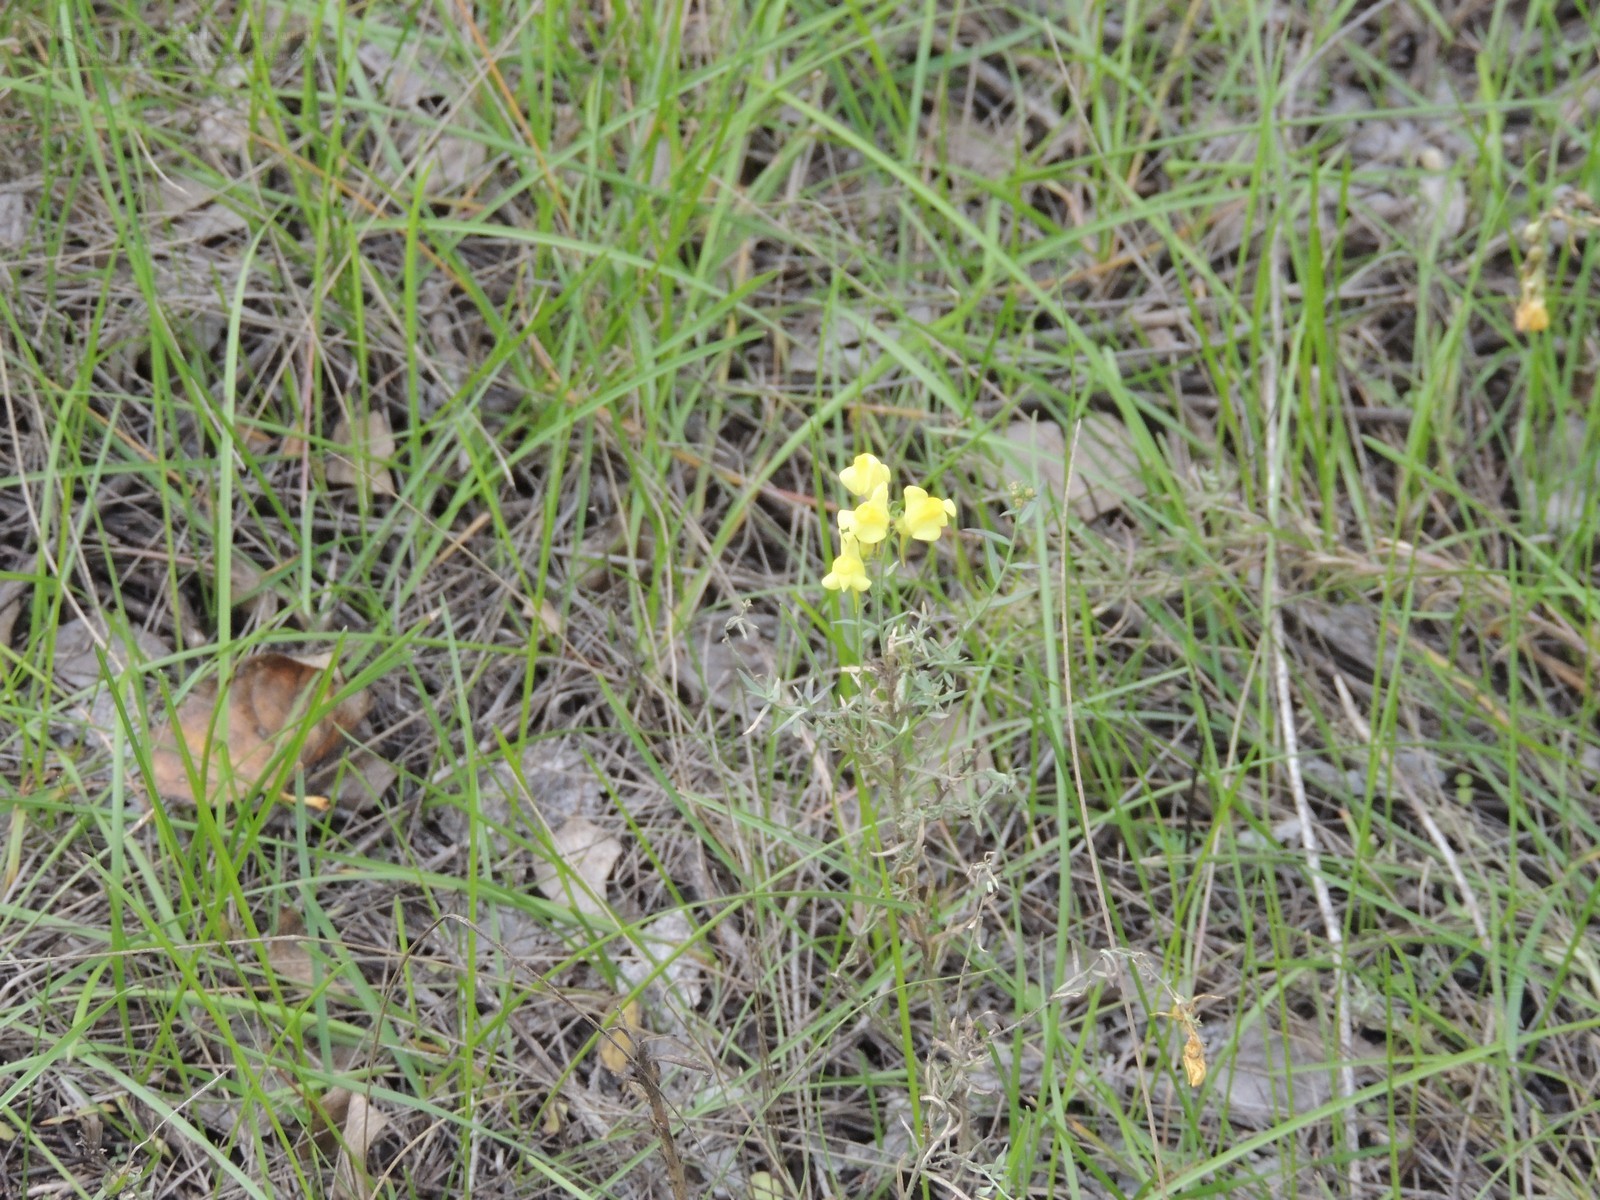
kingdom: Plantae
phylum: Tracheophyta
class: Magnoliopsida
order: Lamiales
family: Plantaginaceae
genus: Linaria
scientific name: Linaria vulgaris
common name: Butter and eggs
